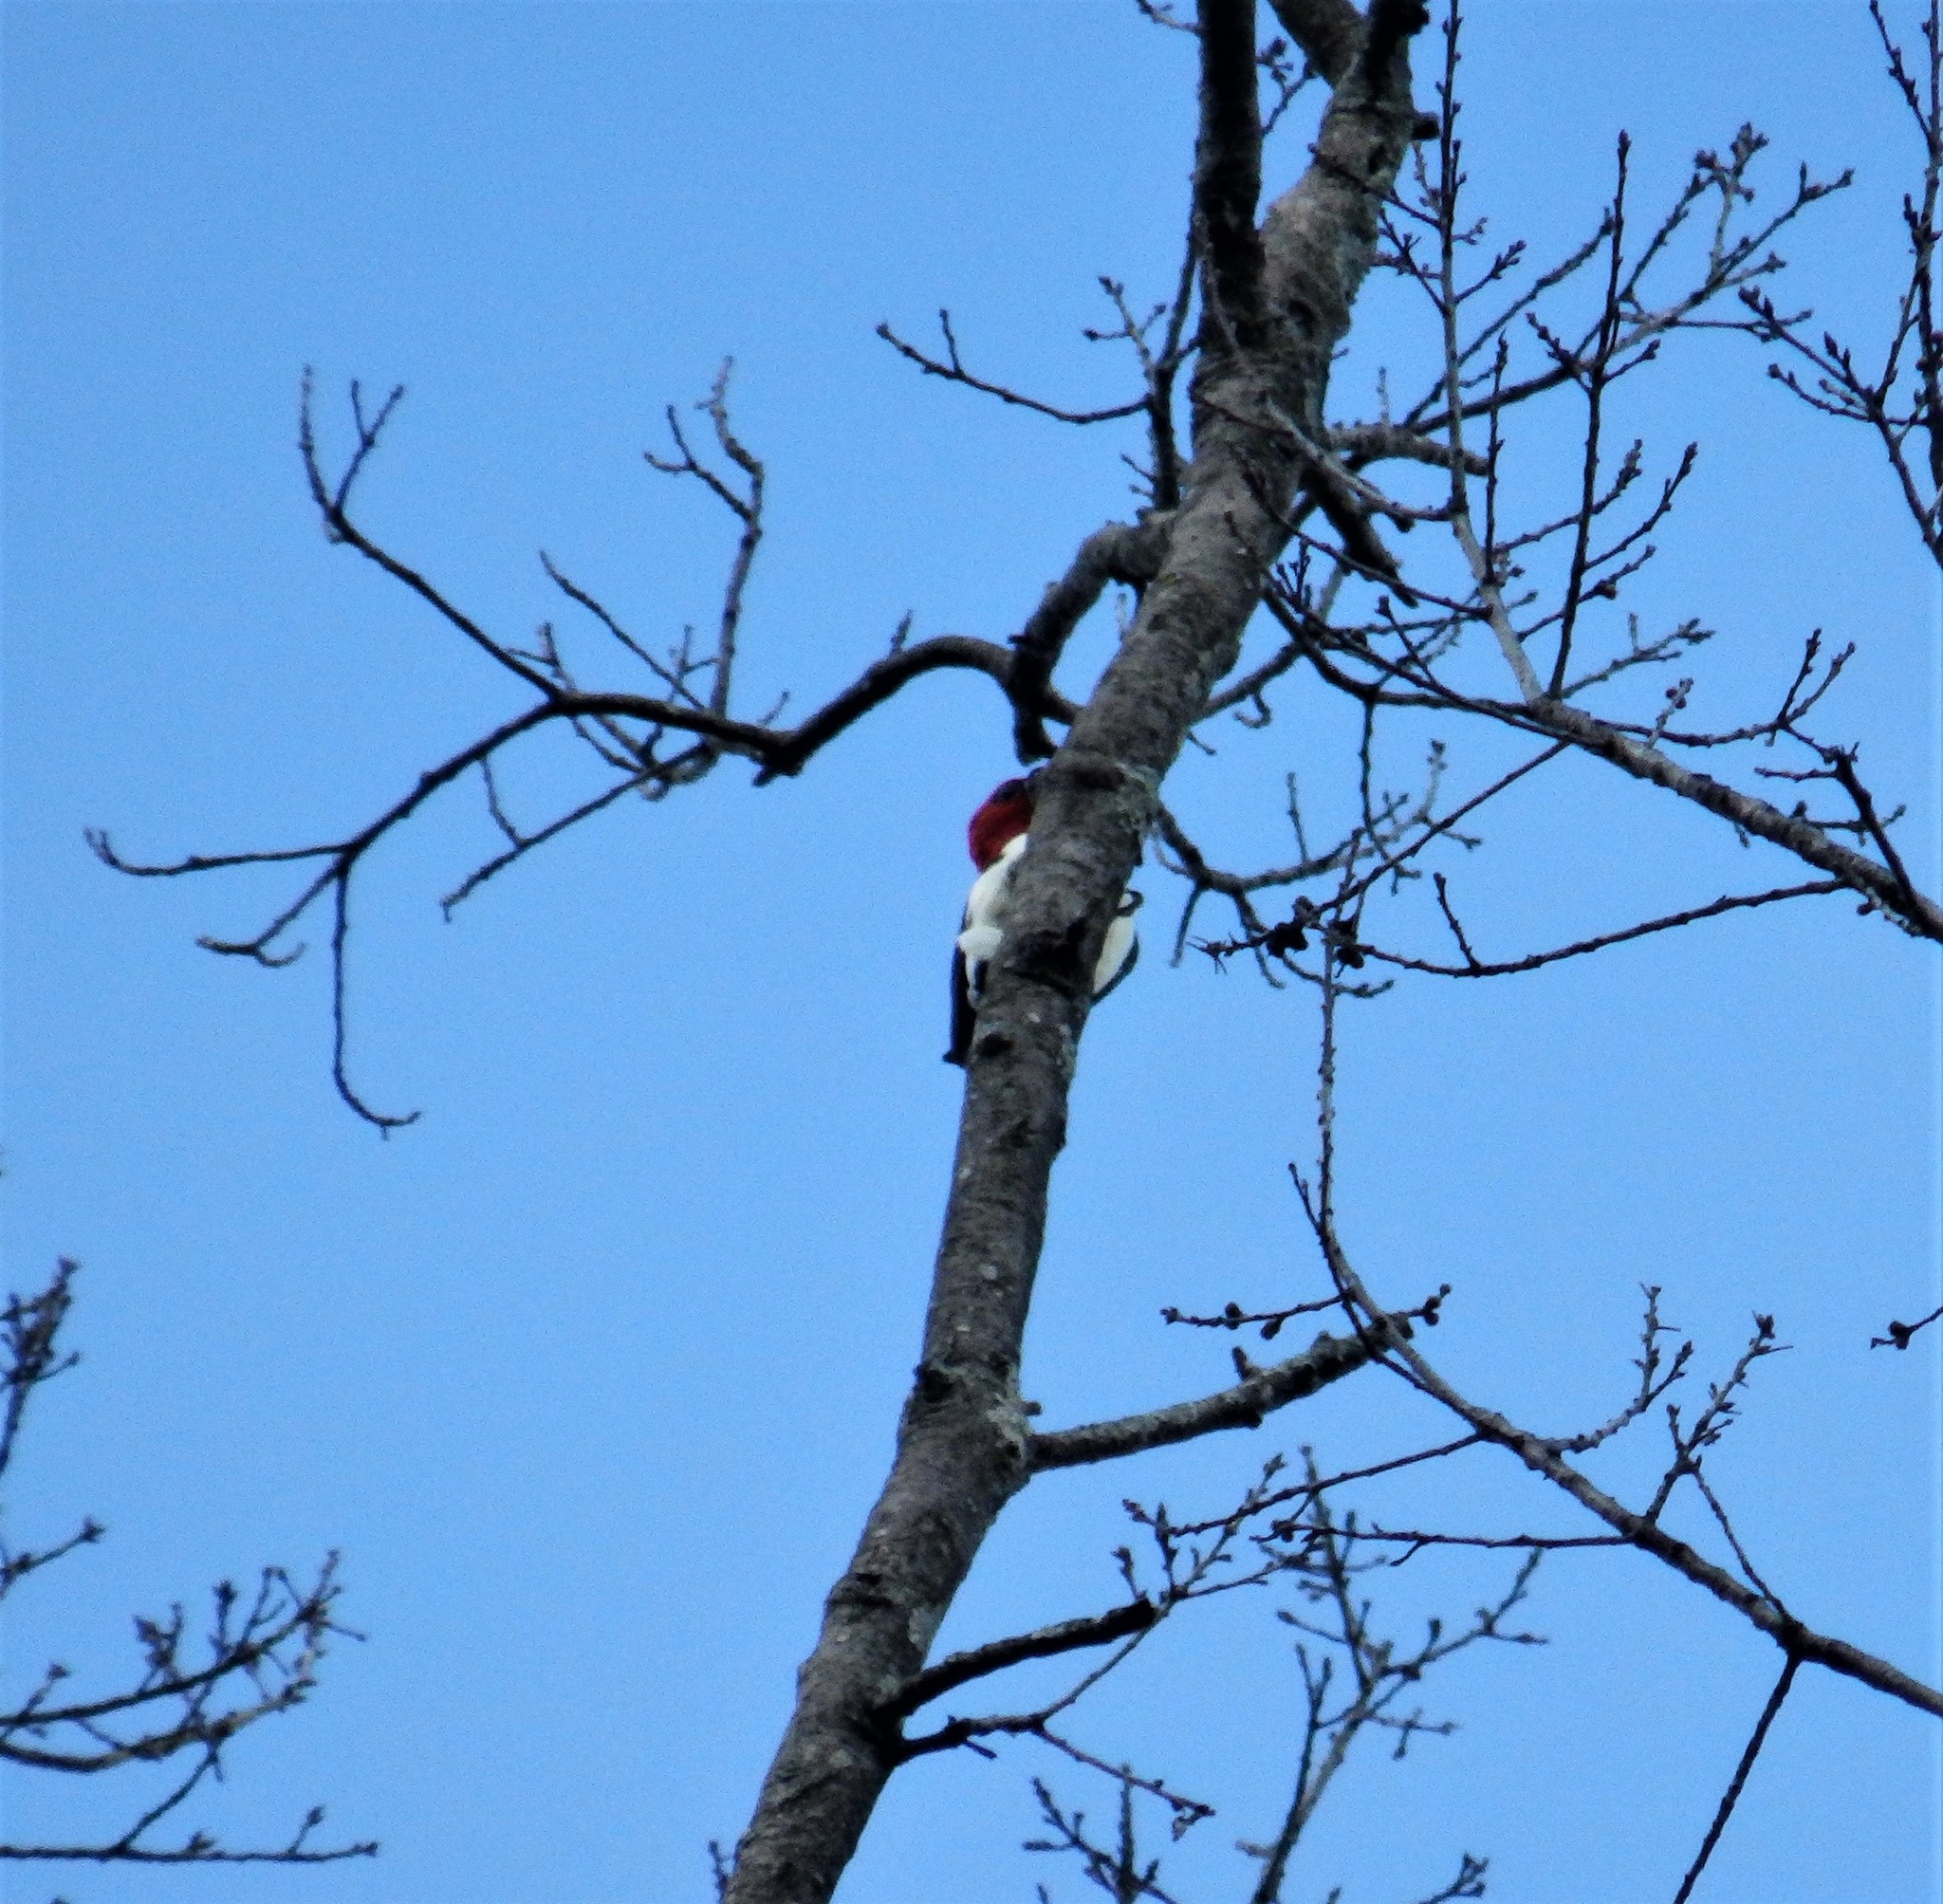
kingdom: Animalia
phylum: Chordata
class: Aves
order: Piciformes
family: Picidae
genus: Melanerpes
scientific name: Melanerpes erythrocephalus
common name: Red-headed woodpecker
